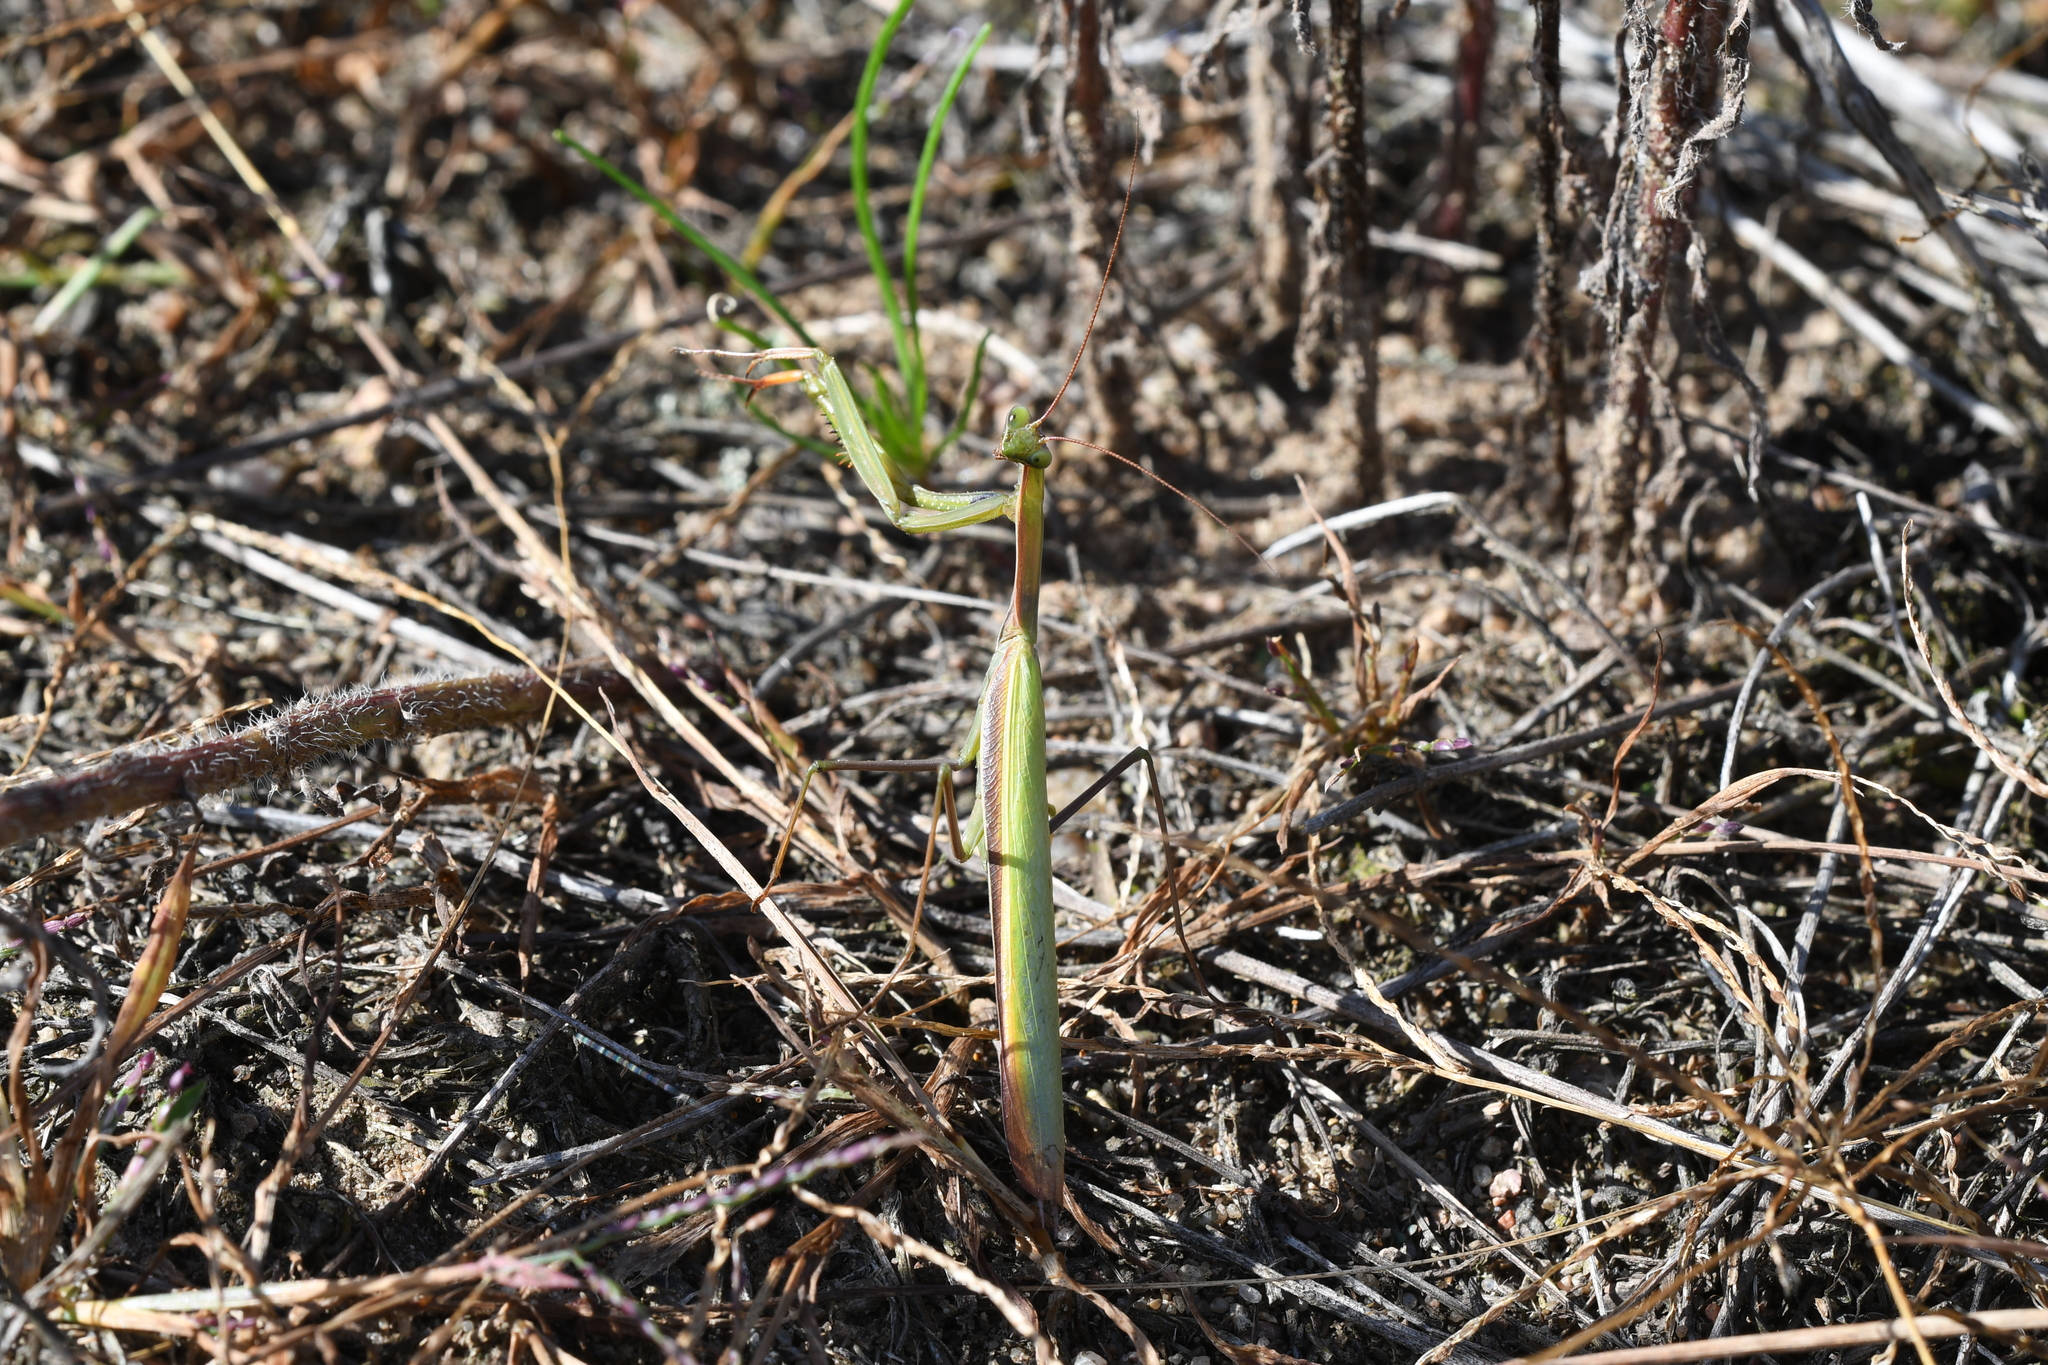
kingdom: Animalia
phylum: Arthropoda
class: Insecta
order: Mantodea
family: Mantidae
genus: Mantis
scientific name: Mantis religiosa
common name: Praying mantis
